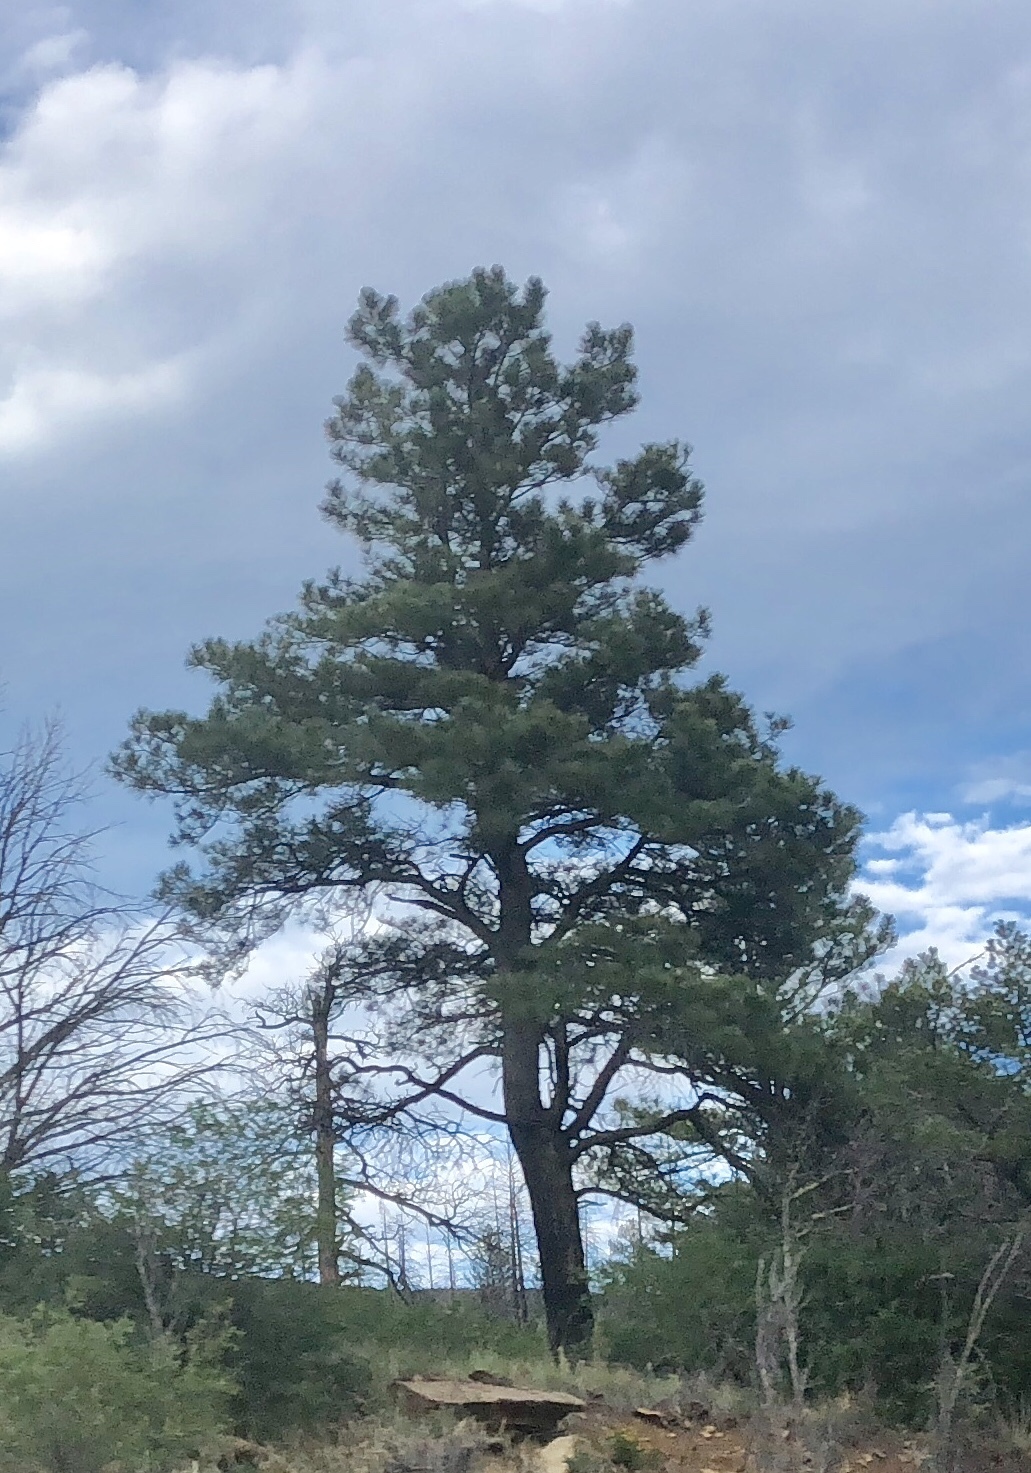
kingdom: Plantae
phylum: Tracheophyta
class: Pinopsida
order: Pinales
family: Pinaceae
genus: Pinus
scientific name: Pinus ponderosa
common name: Western yellow-pine
